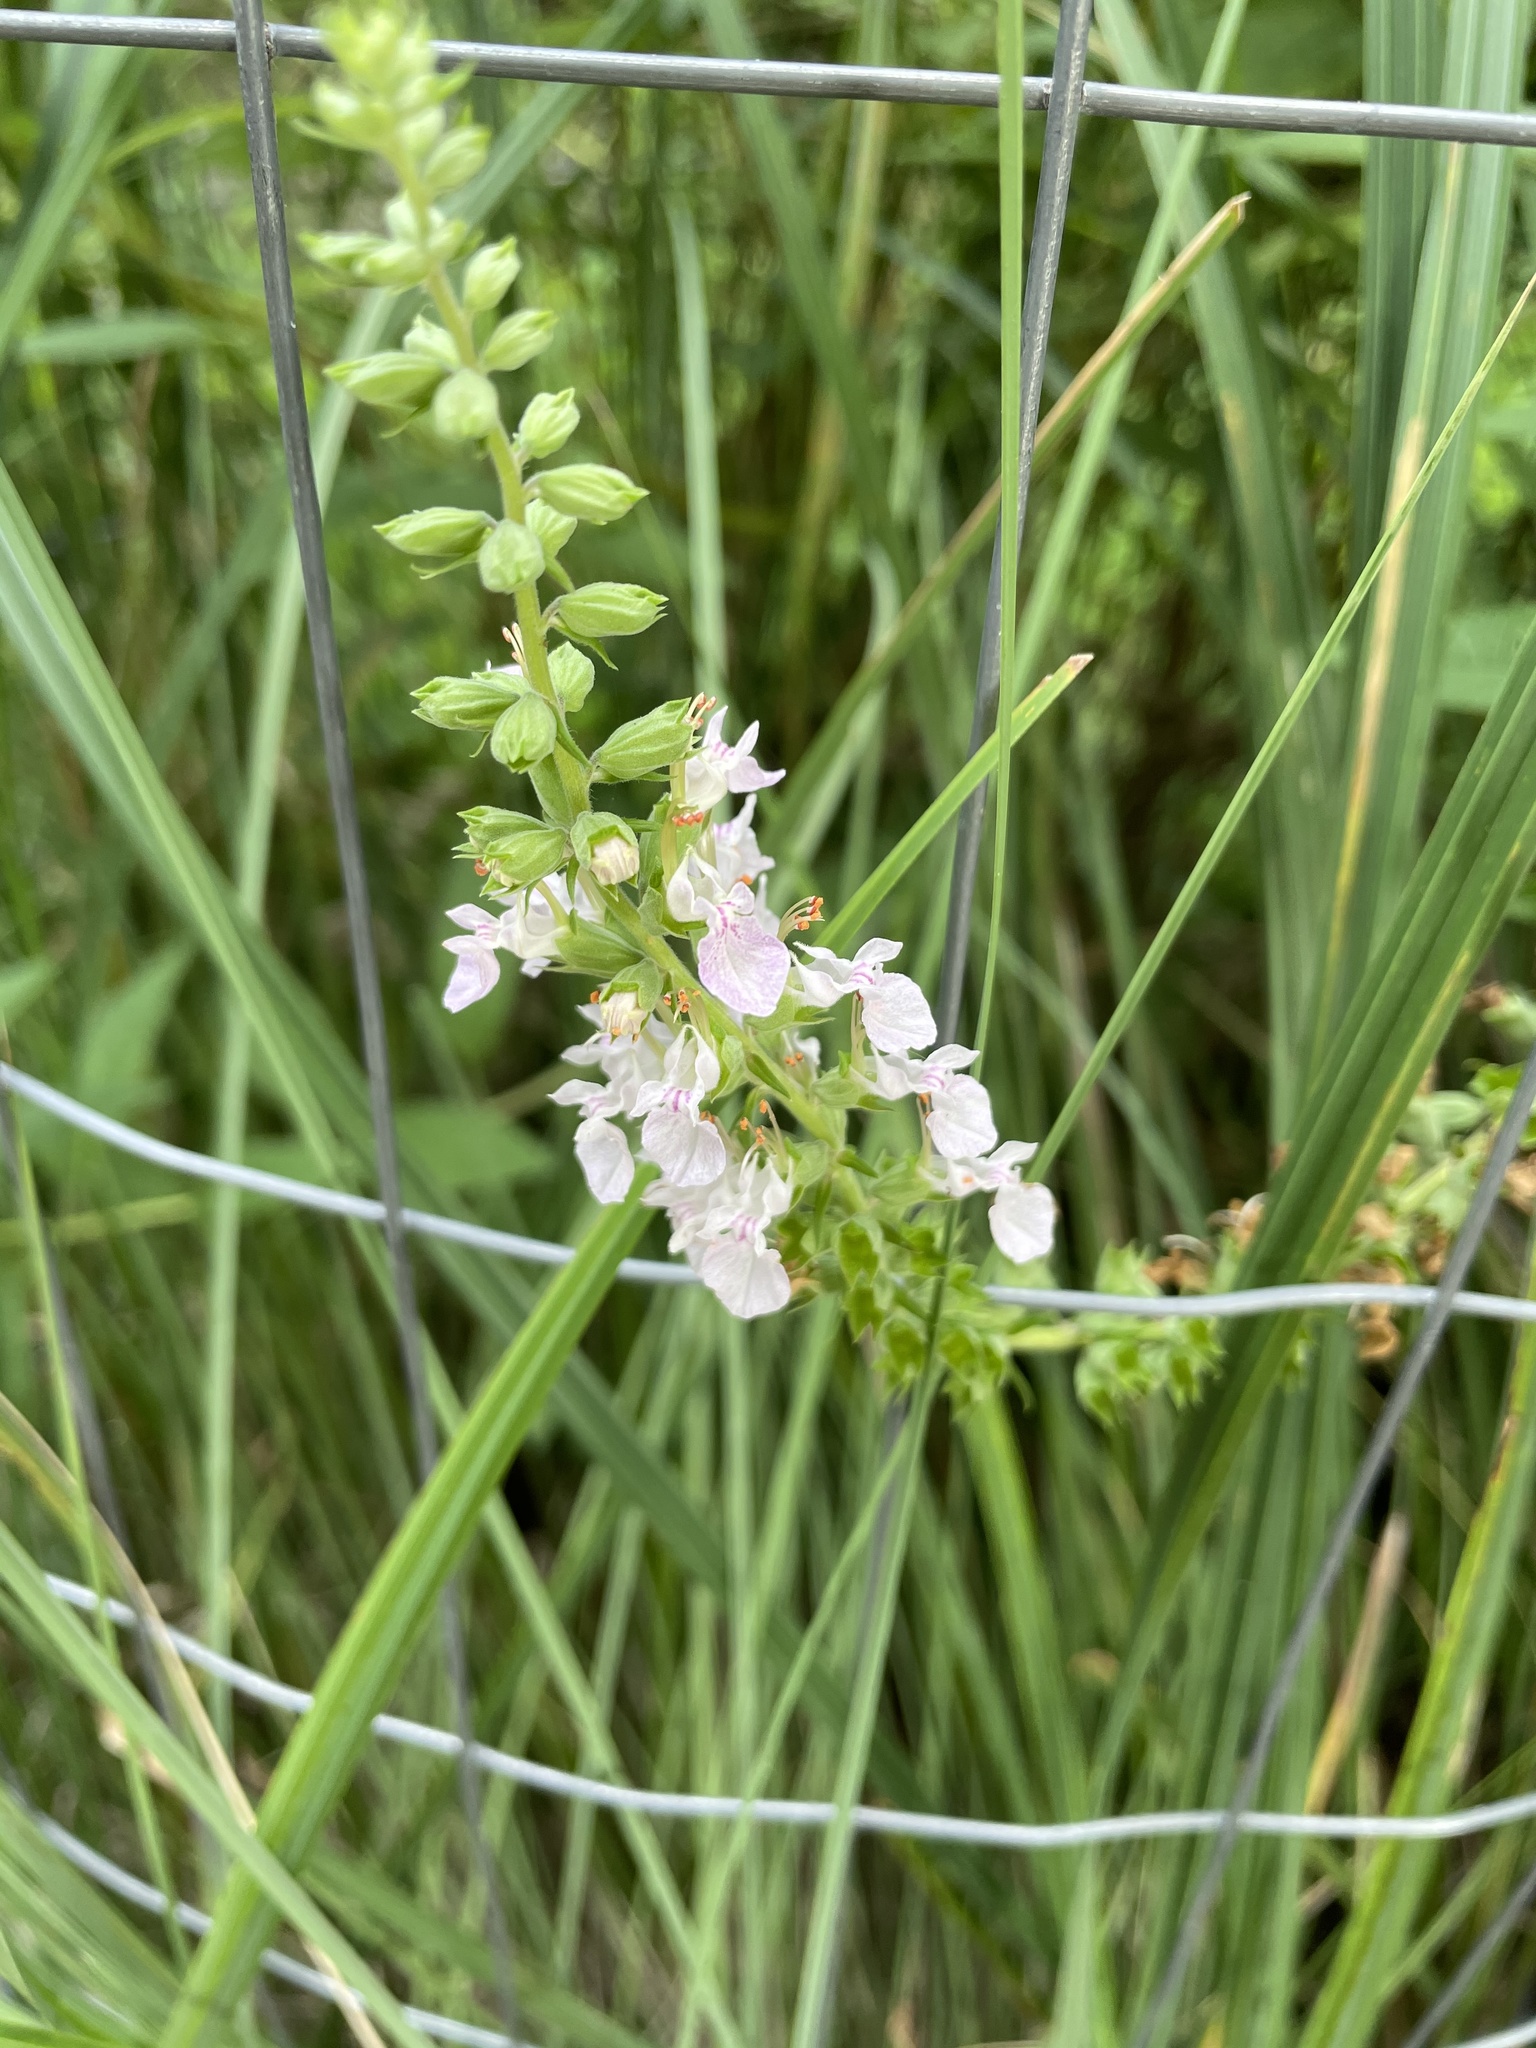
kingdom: Plantae
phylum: Tracheophyta
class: Magnoliopsida
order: Lamiales
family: Lamiaceae
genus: Teucrium
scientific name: Teucrium canadense
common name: American germander
